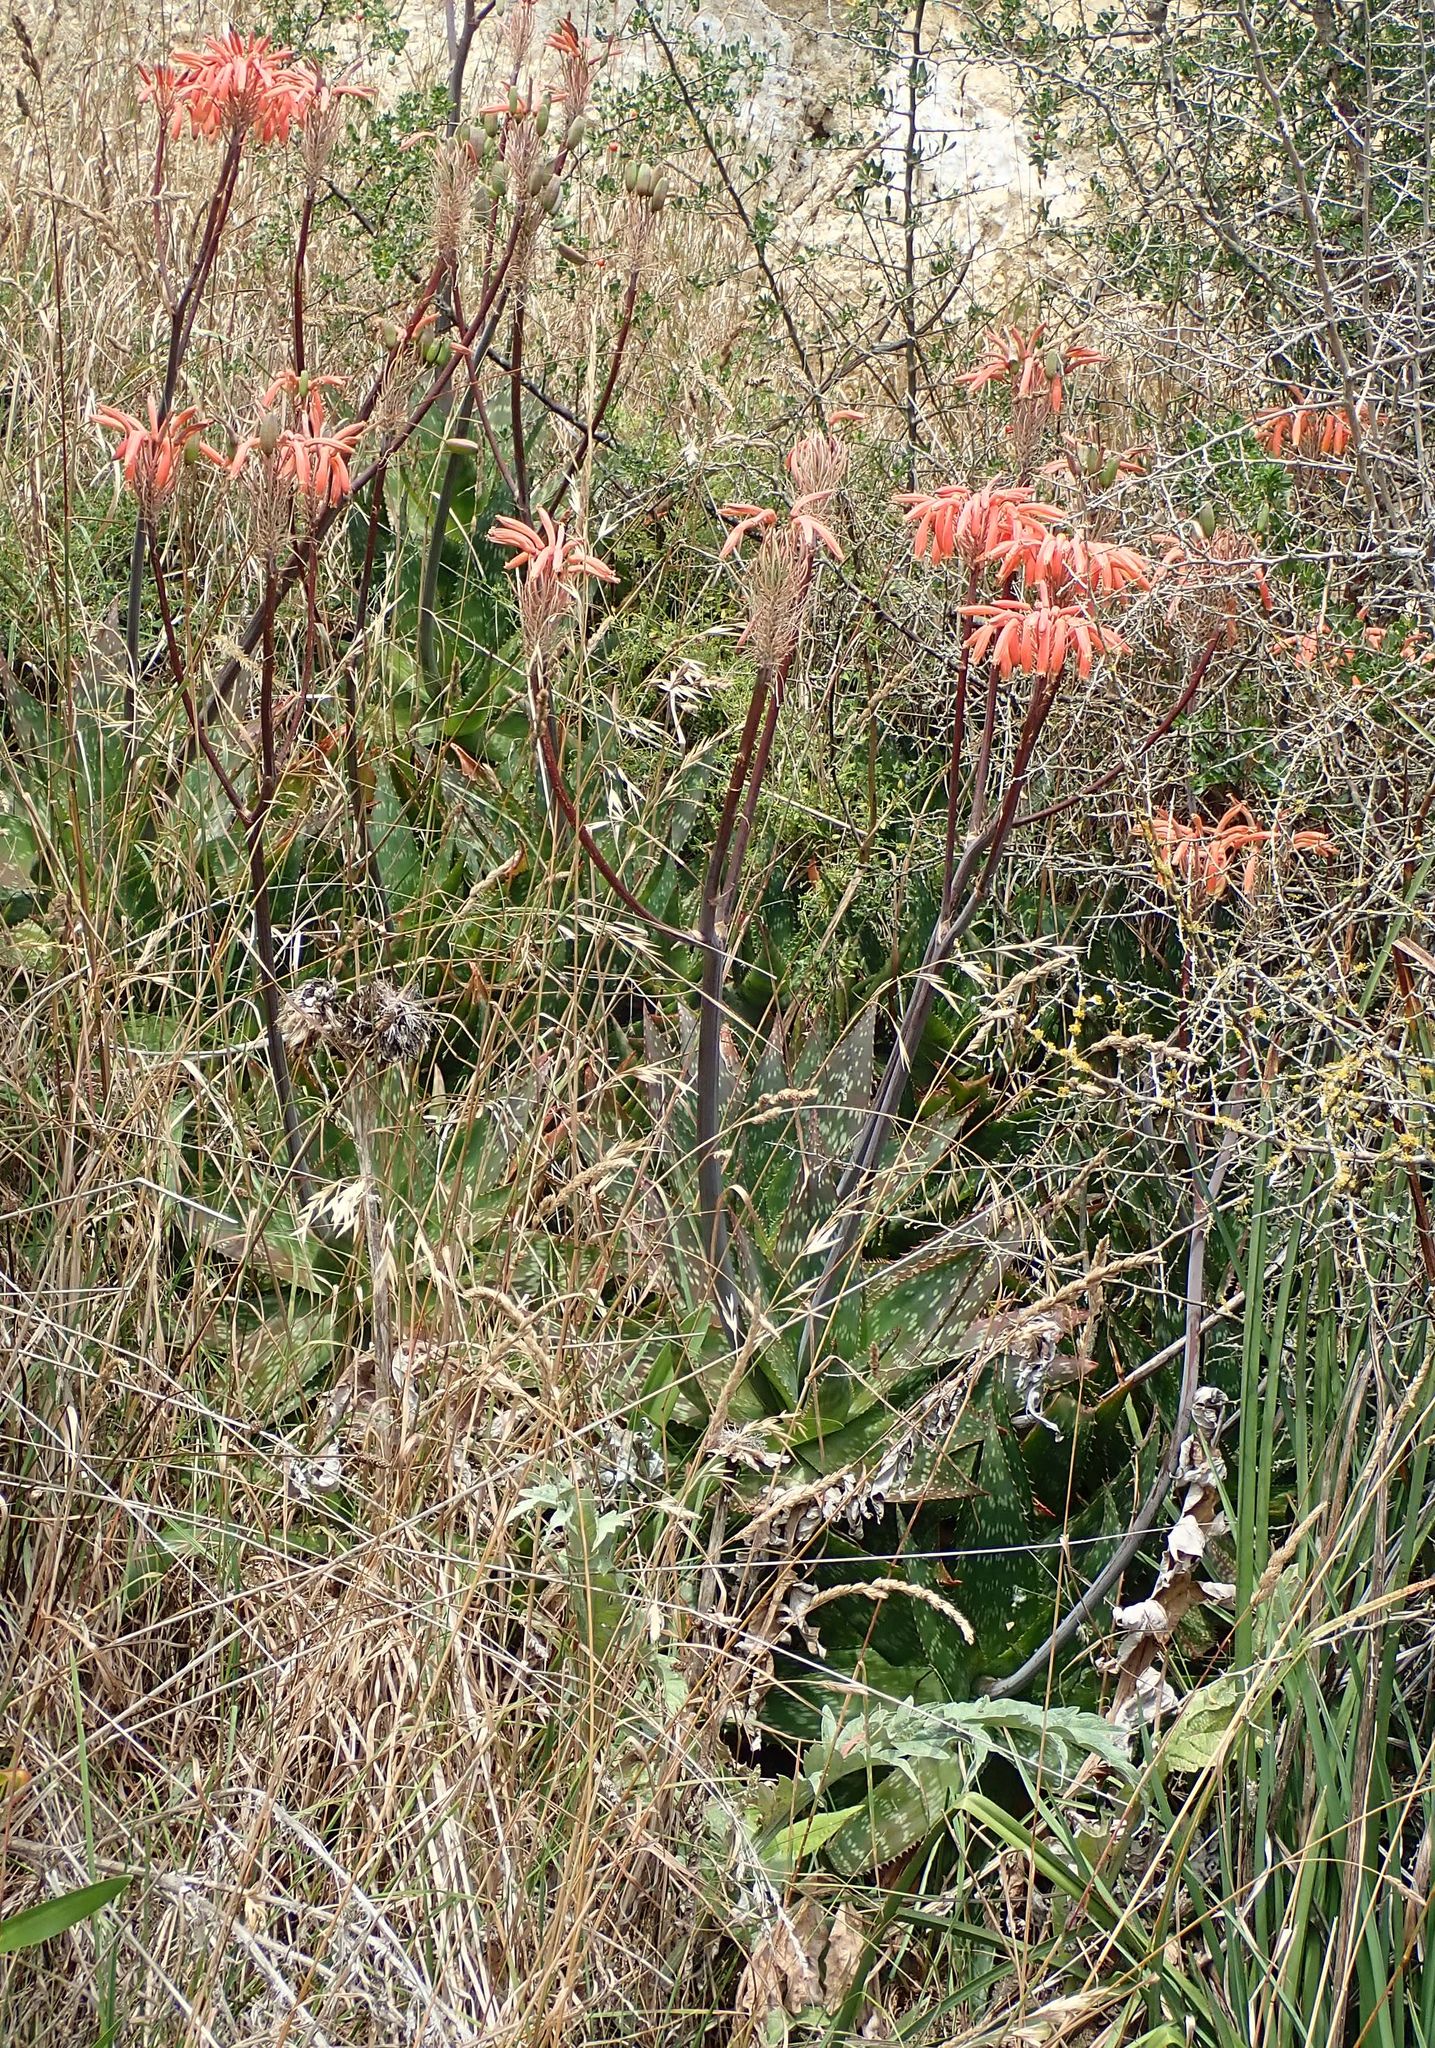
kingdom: Plantae
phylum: Tracheophyta
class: Liliopsida
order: Asparagales
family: Asphodelaceae
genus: Aloe
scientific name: Aloe maculata
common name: Broadleaf aloe
